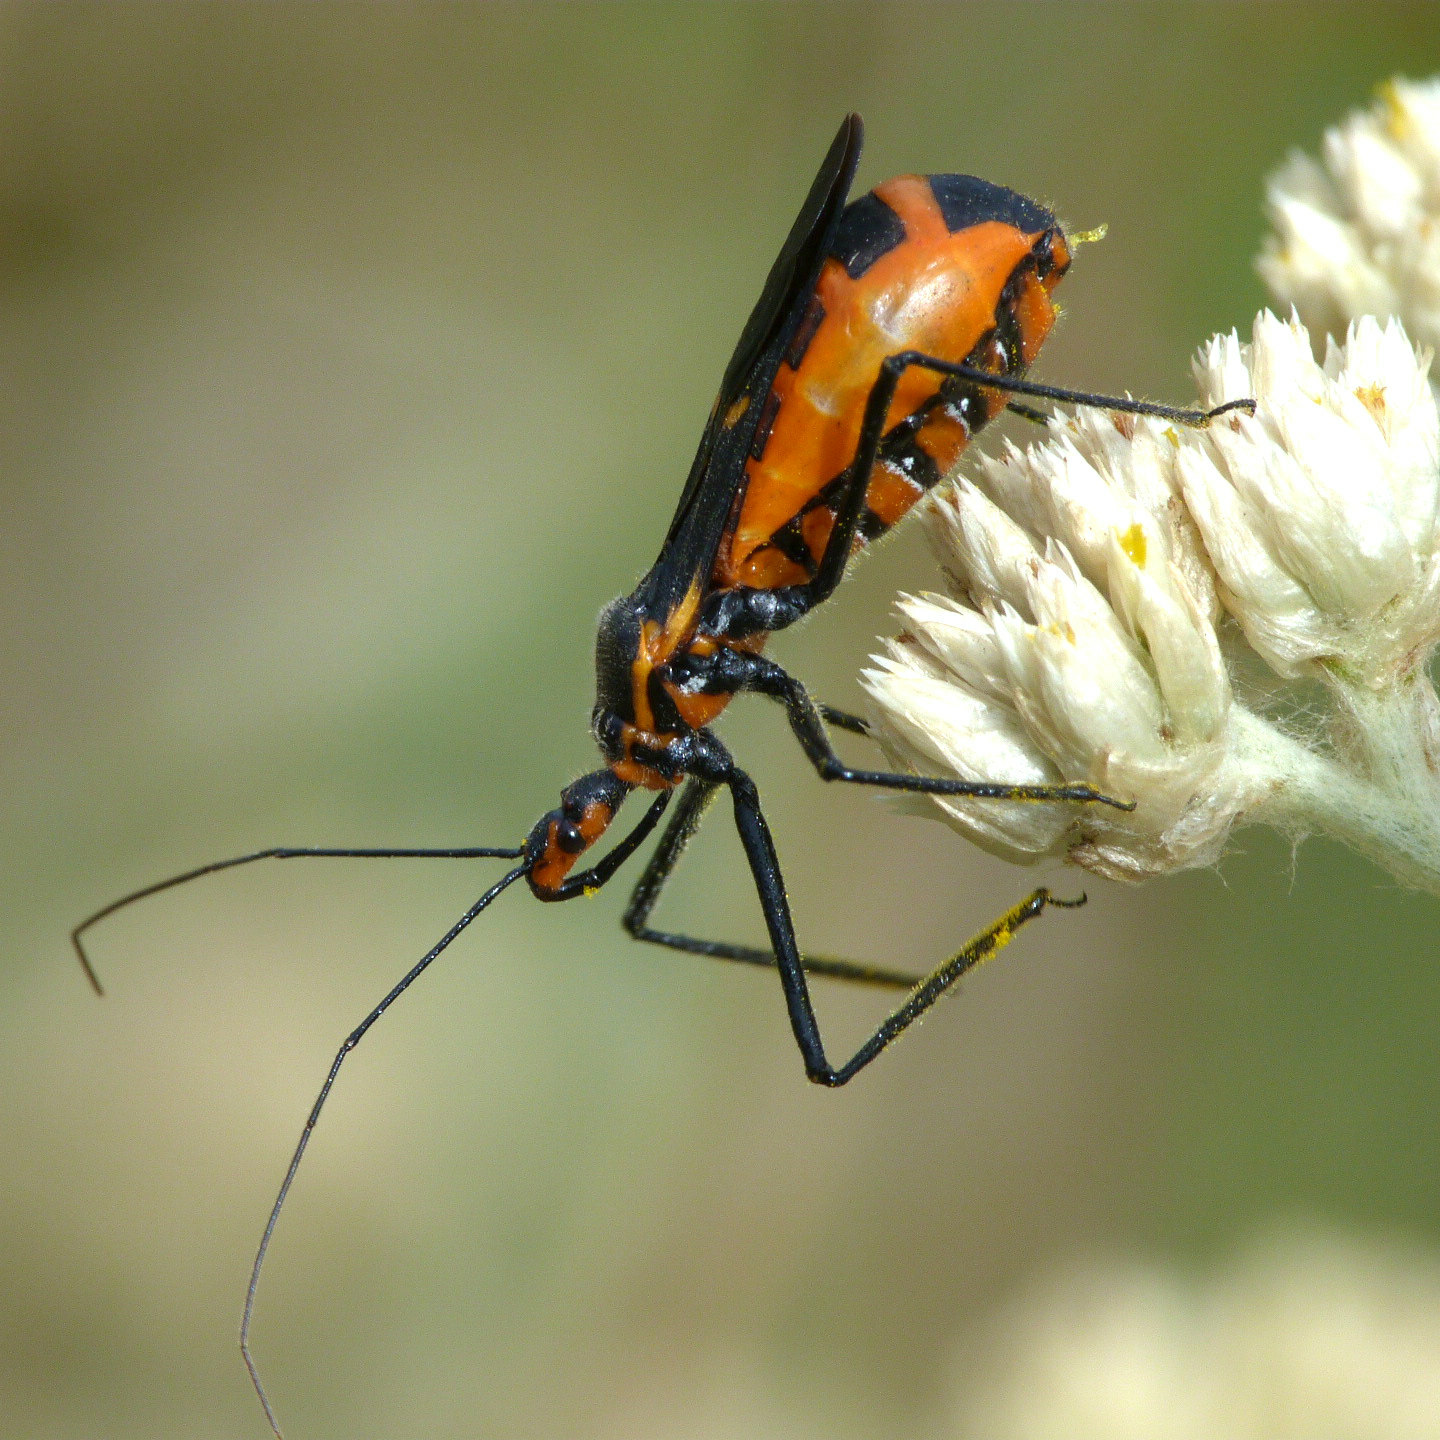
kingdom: Animalia
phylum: Arthropoda
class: Insecta
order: Hemiptera
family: Reduviidae
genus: Zelus
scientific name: Zelus longipes
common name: Milkweed assassin bug
